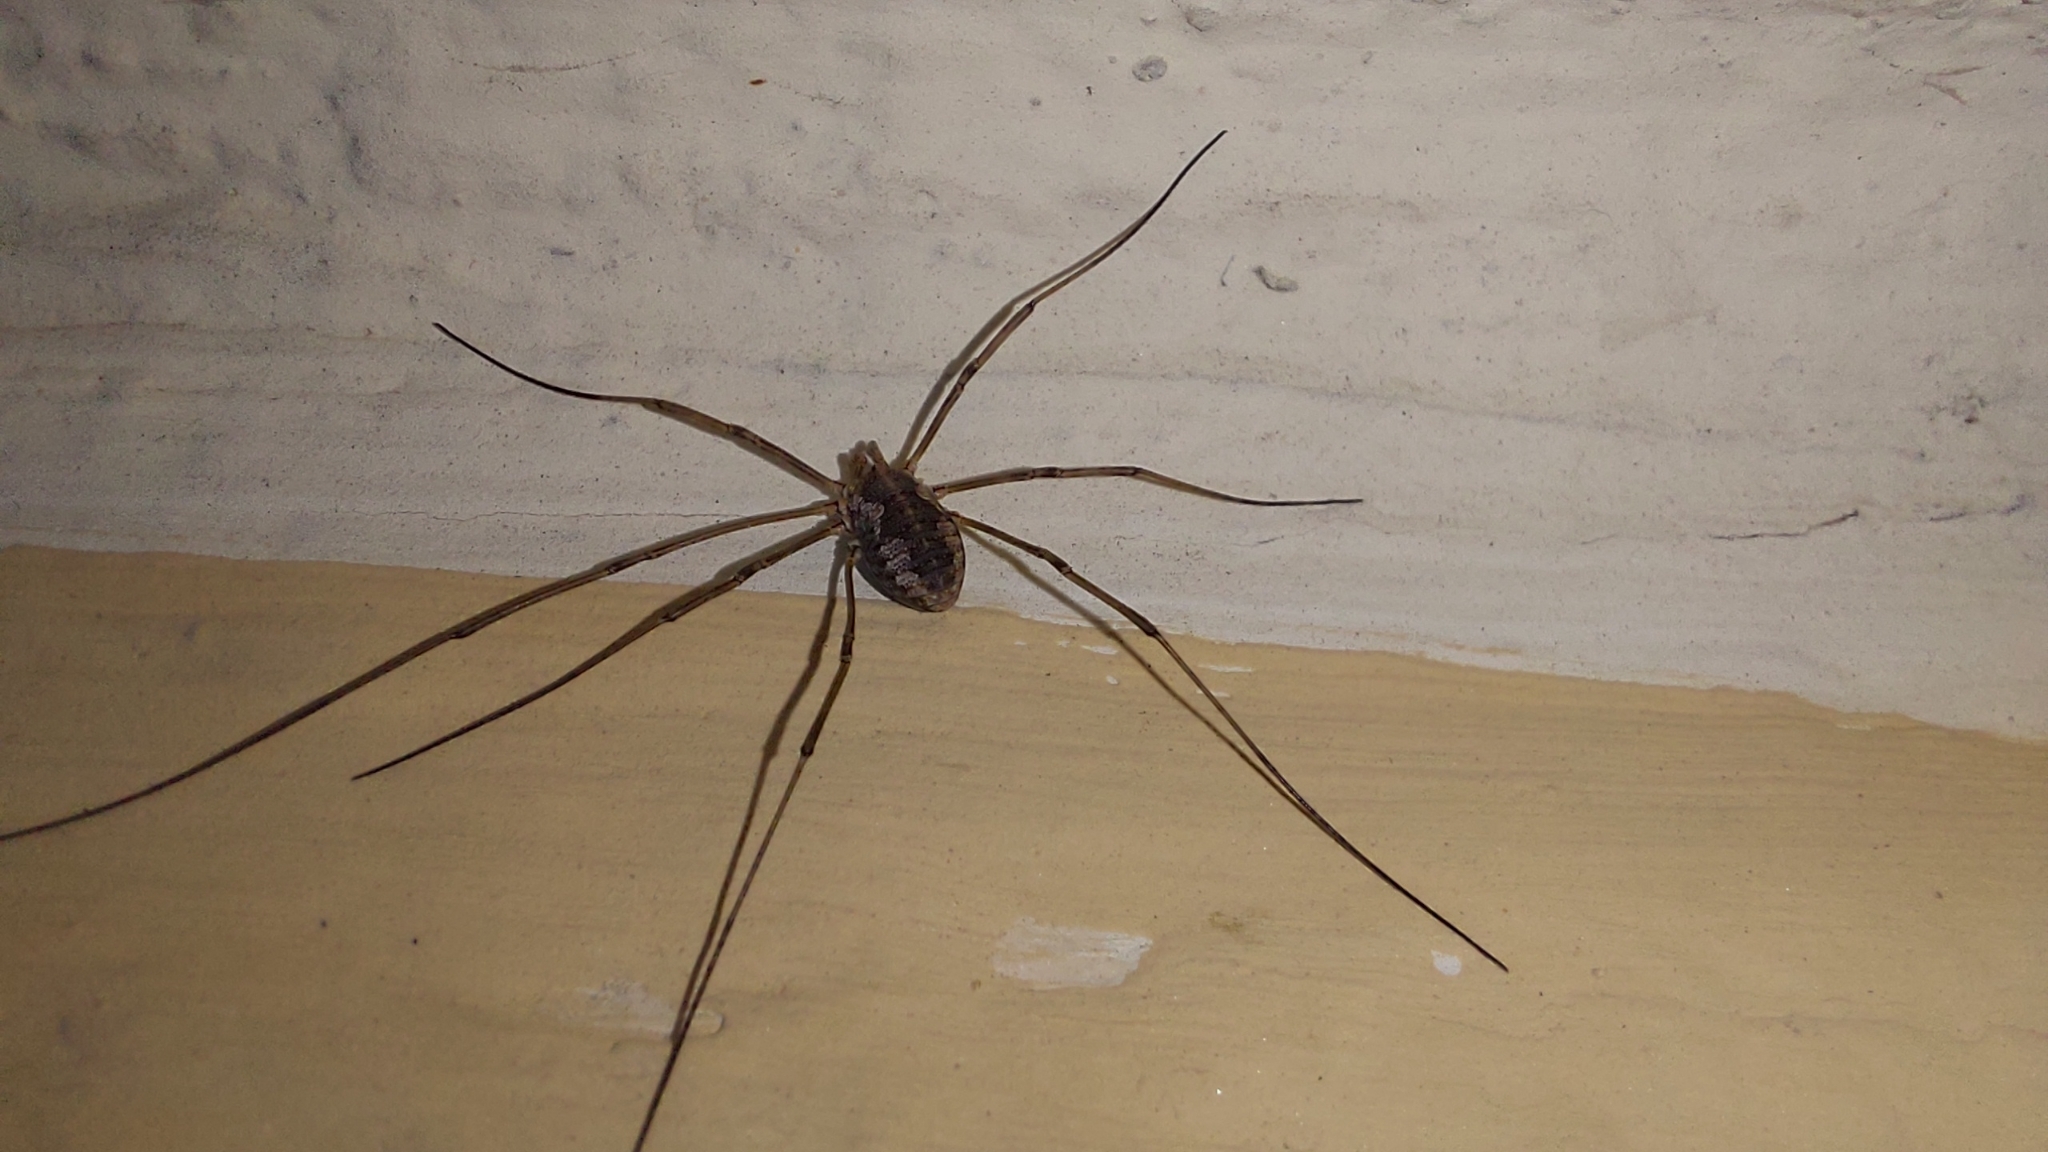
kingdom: Animalia
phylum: Arthropoda
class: Arachnida
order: Opiliones
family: Phalangiidae
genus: Phalangium
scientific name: Phalangium opilio
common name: Daddy longleg
